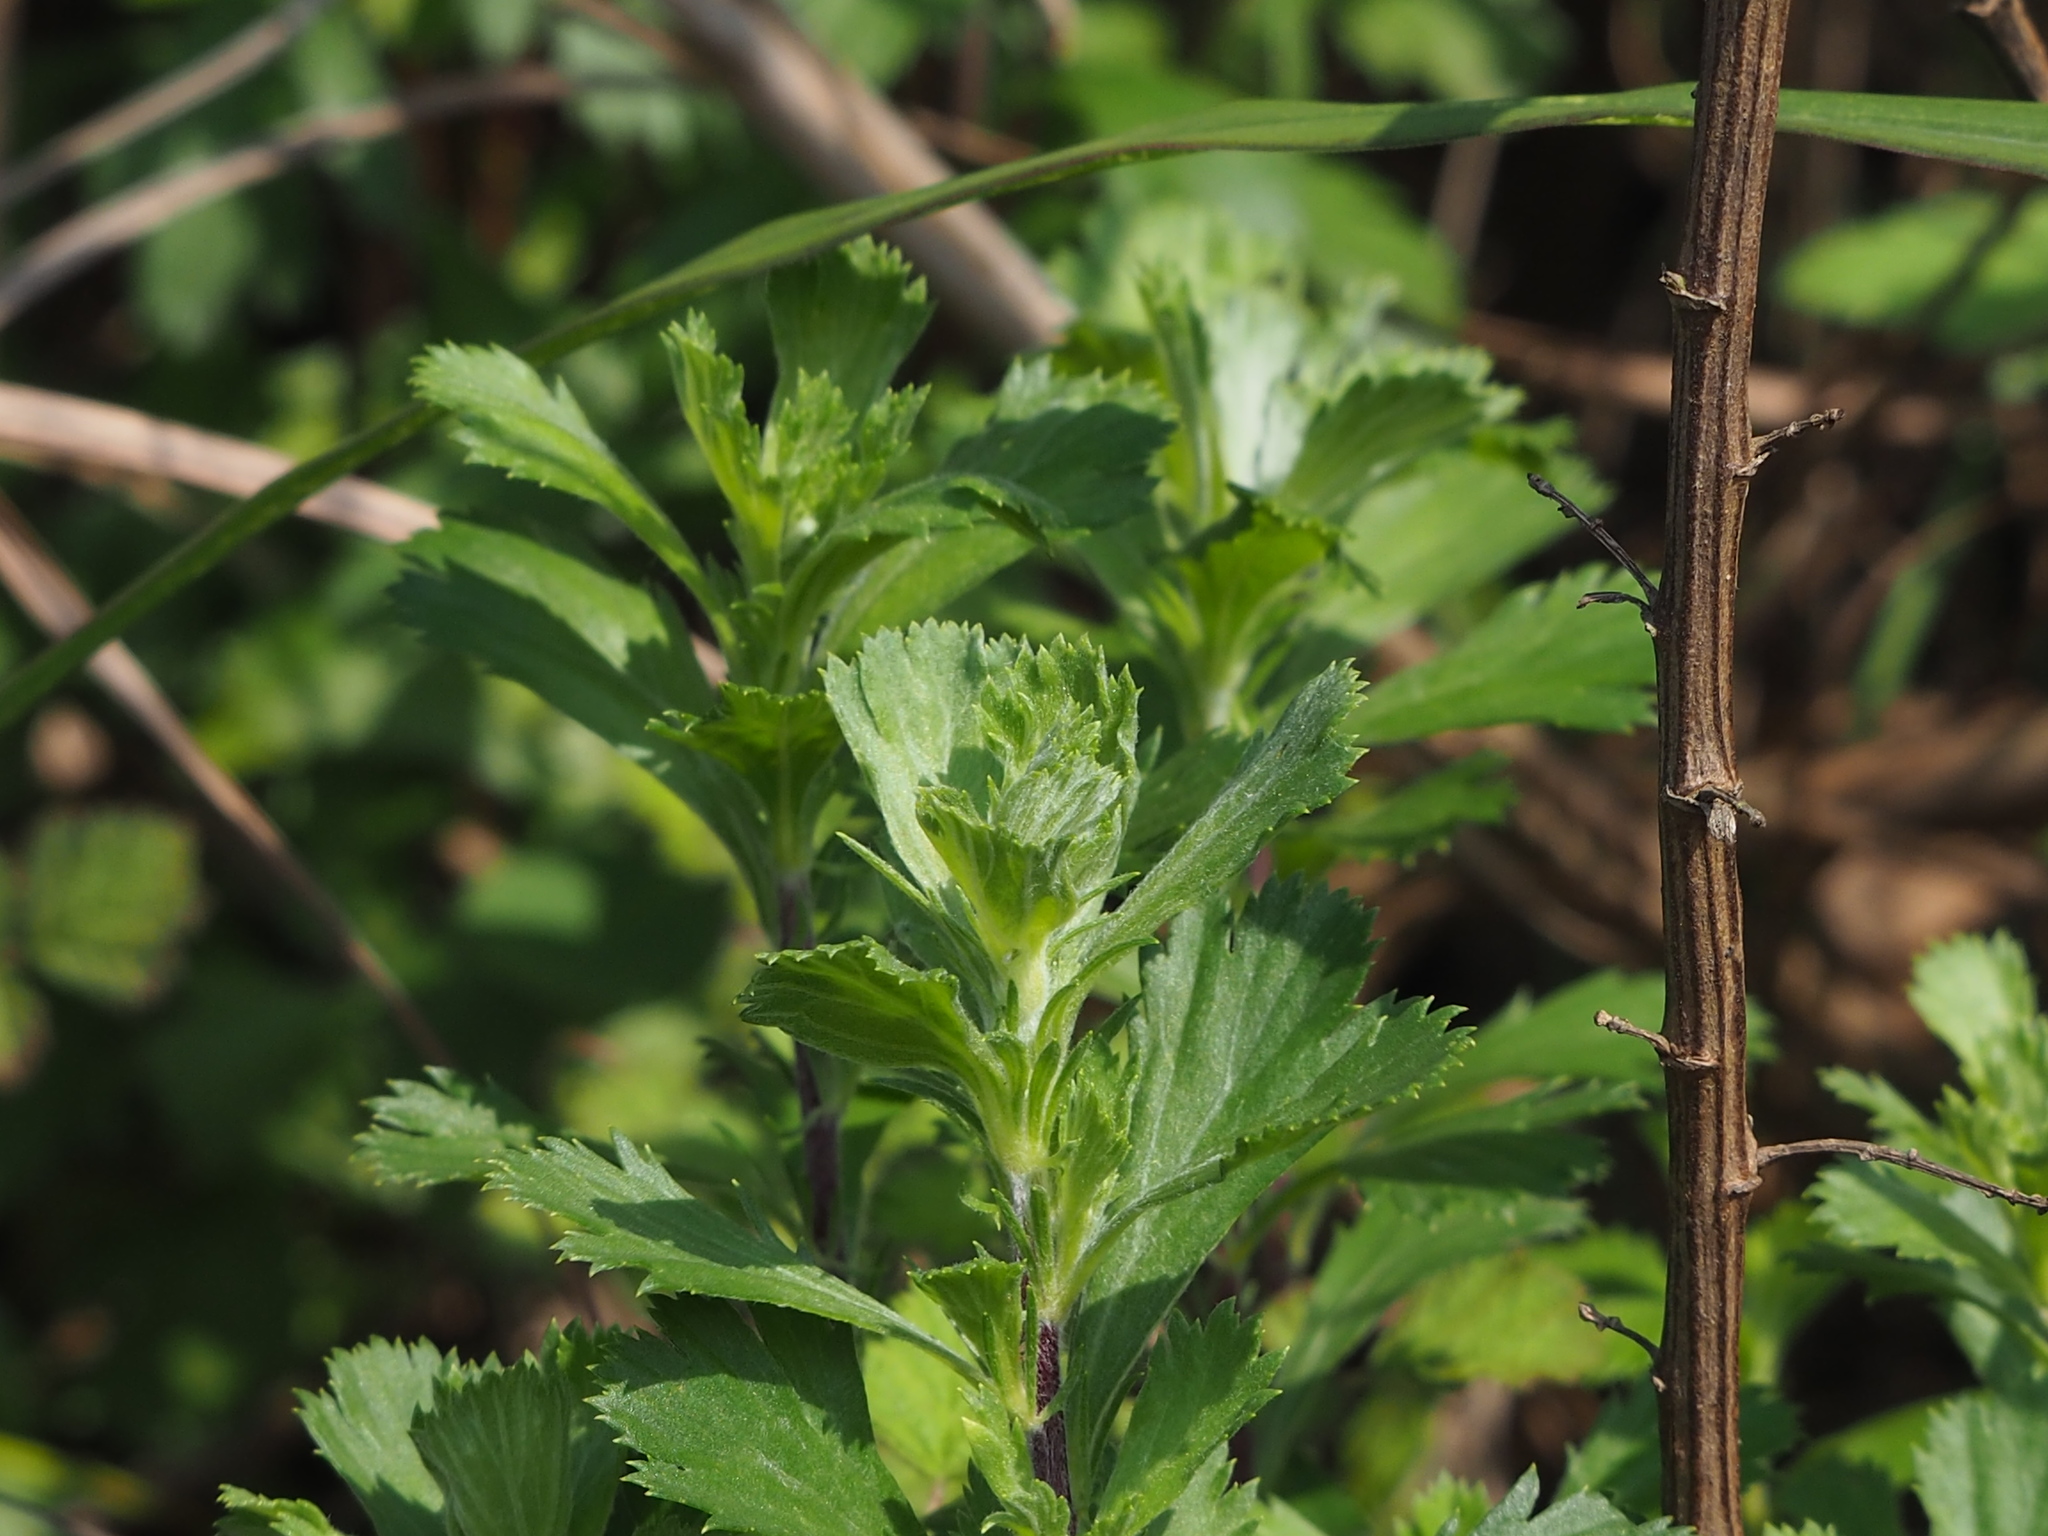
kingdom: Plantae
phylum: Tracheophyta
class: Magnoliopsida
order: Asterales
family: Asteraceae
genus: Artemisia
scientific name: Artemisia japonica
